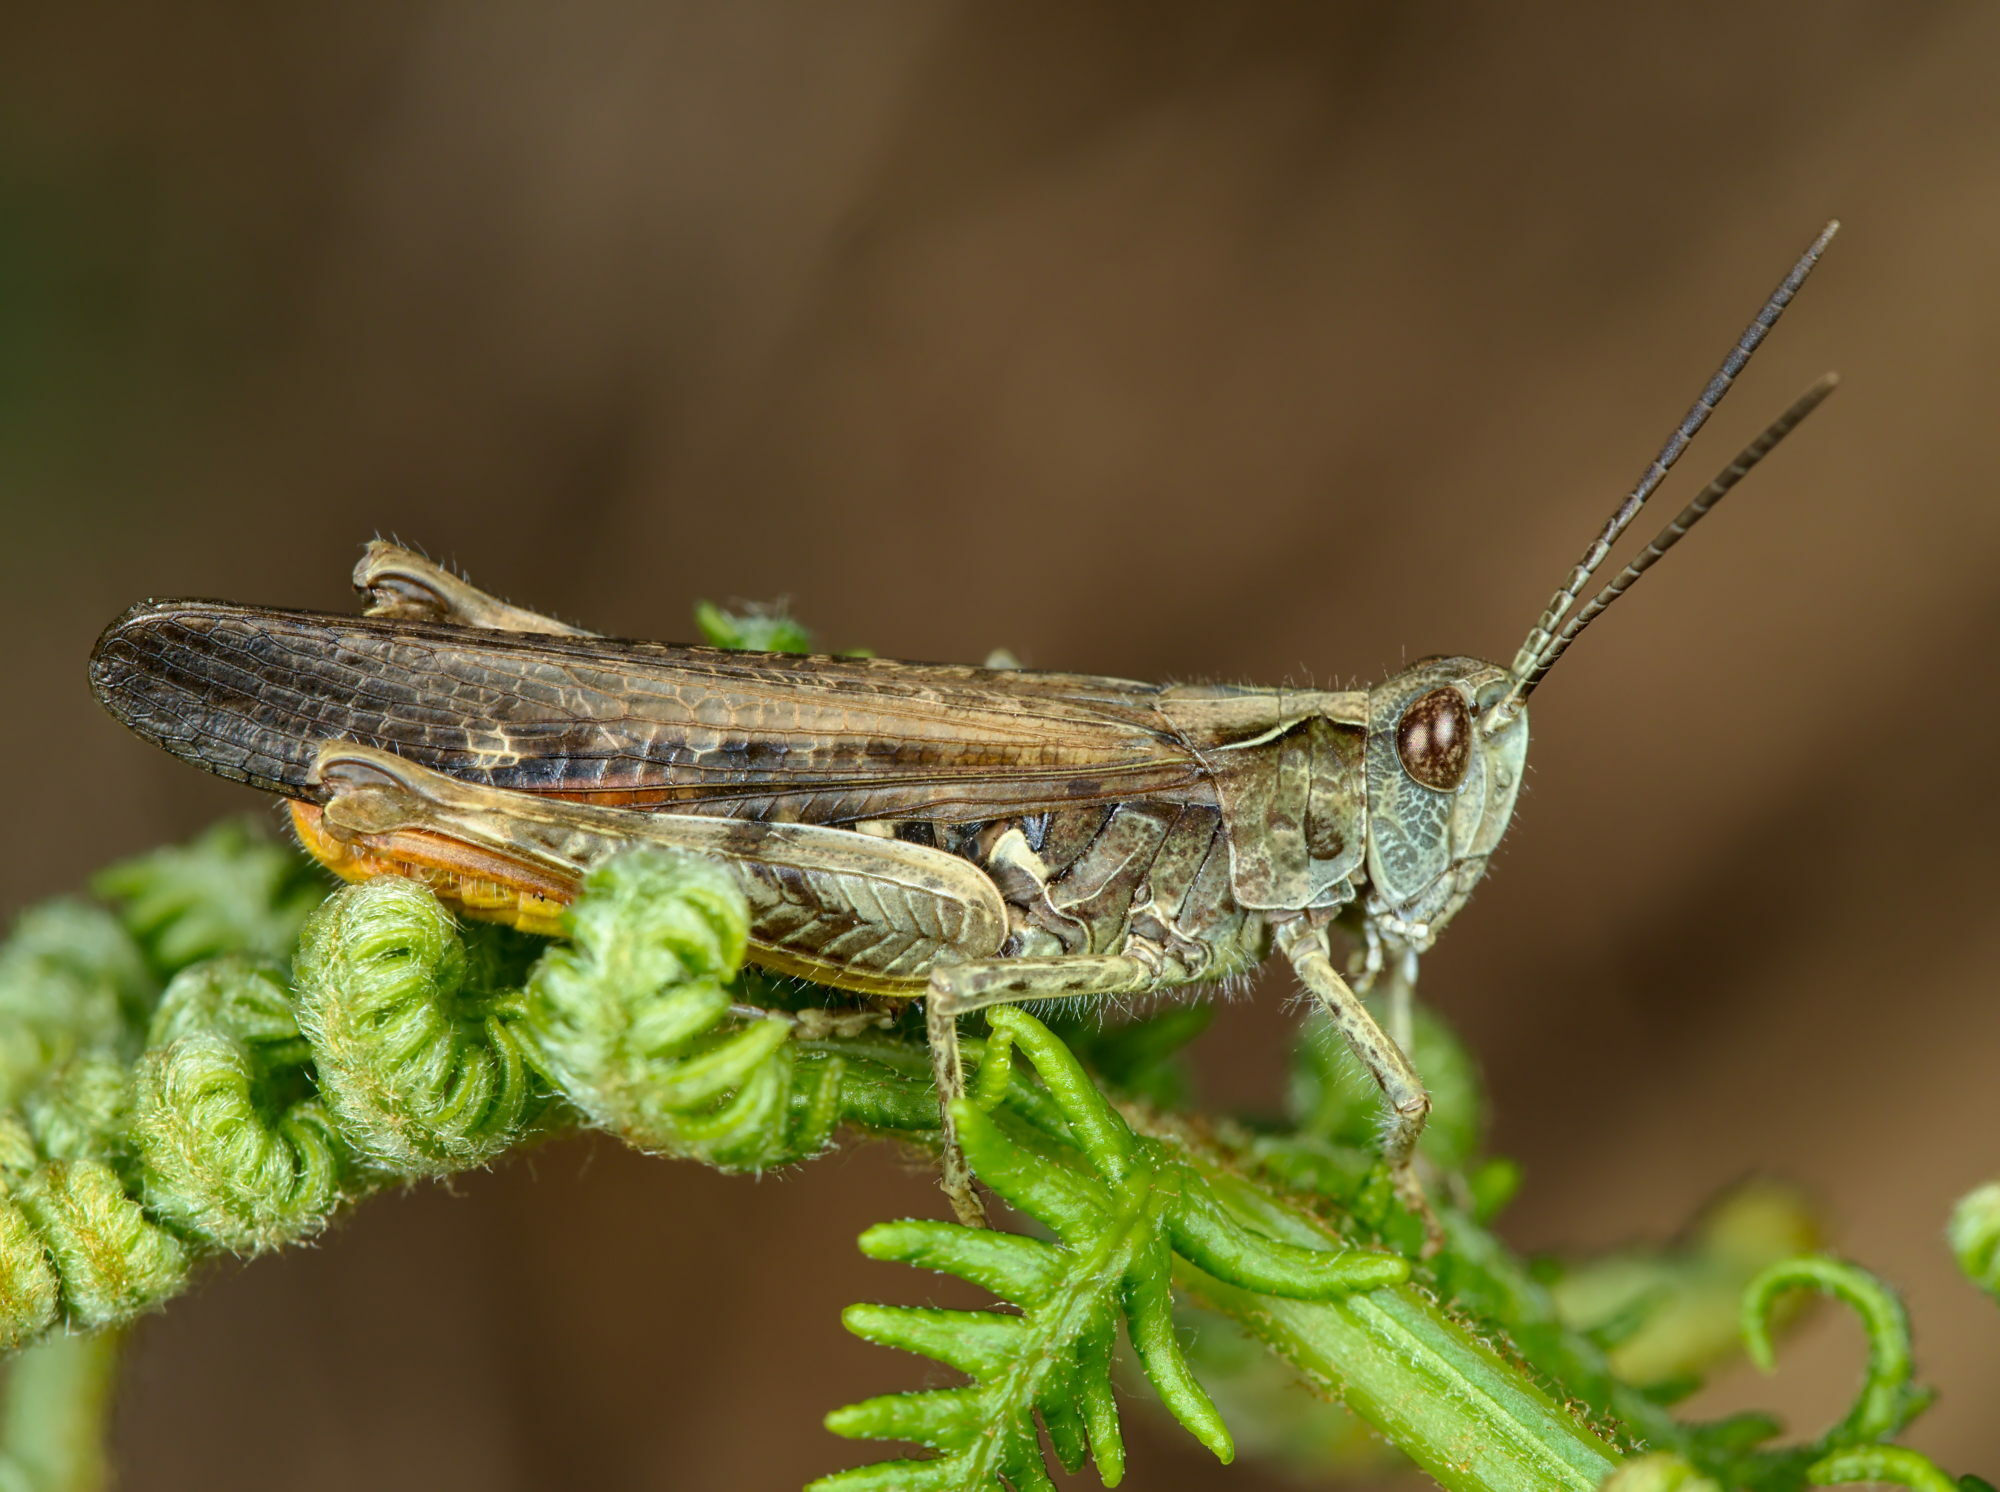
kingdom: Animalia
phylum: Arthropoda
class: Insecta
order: Orthoptera
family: Acrididae
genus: Chorthippus
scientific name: Chorthippus brunneus
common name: Field grasshopper
